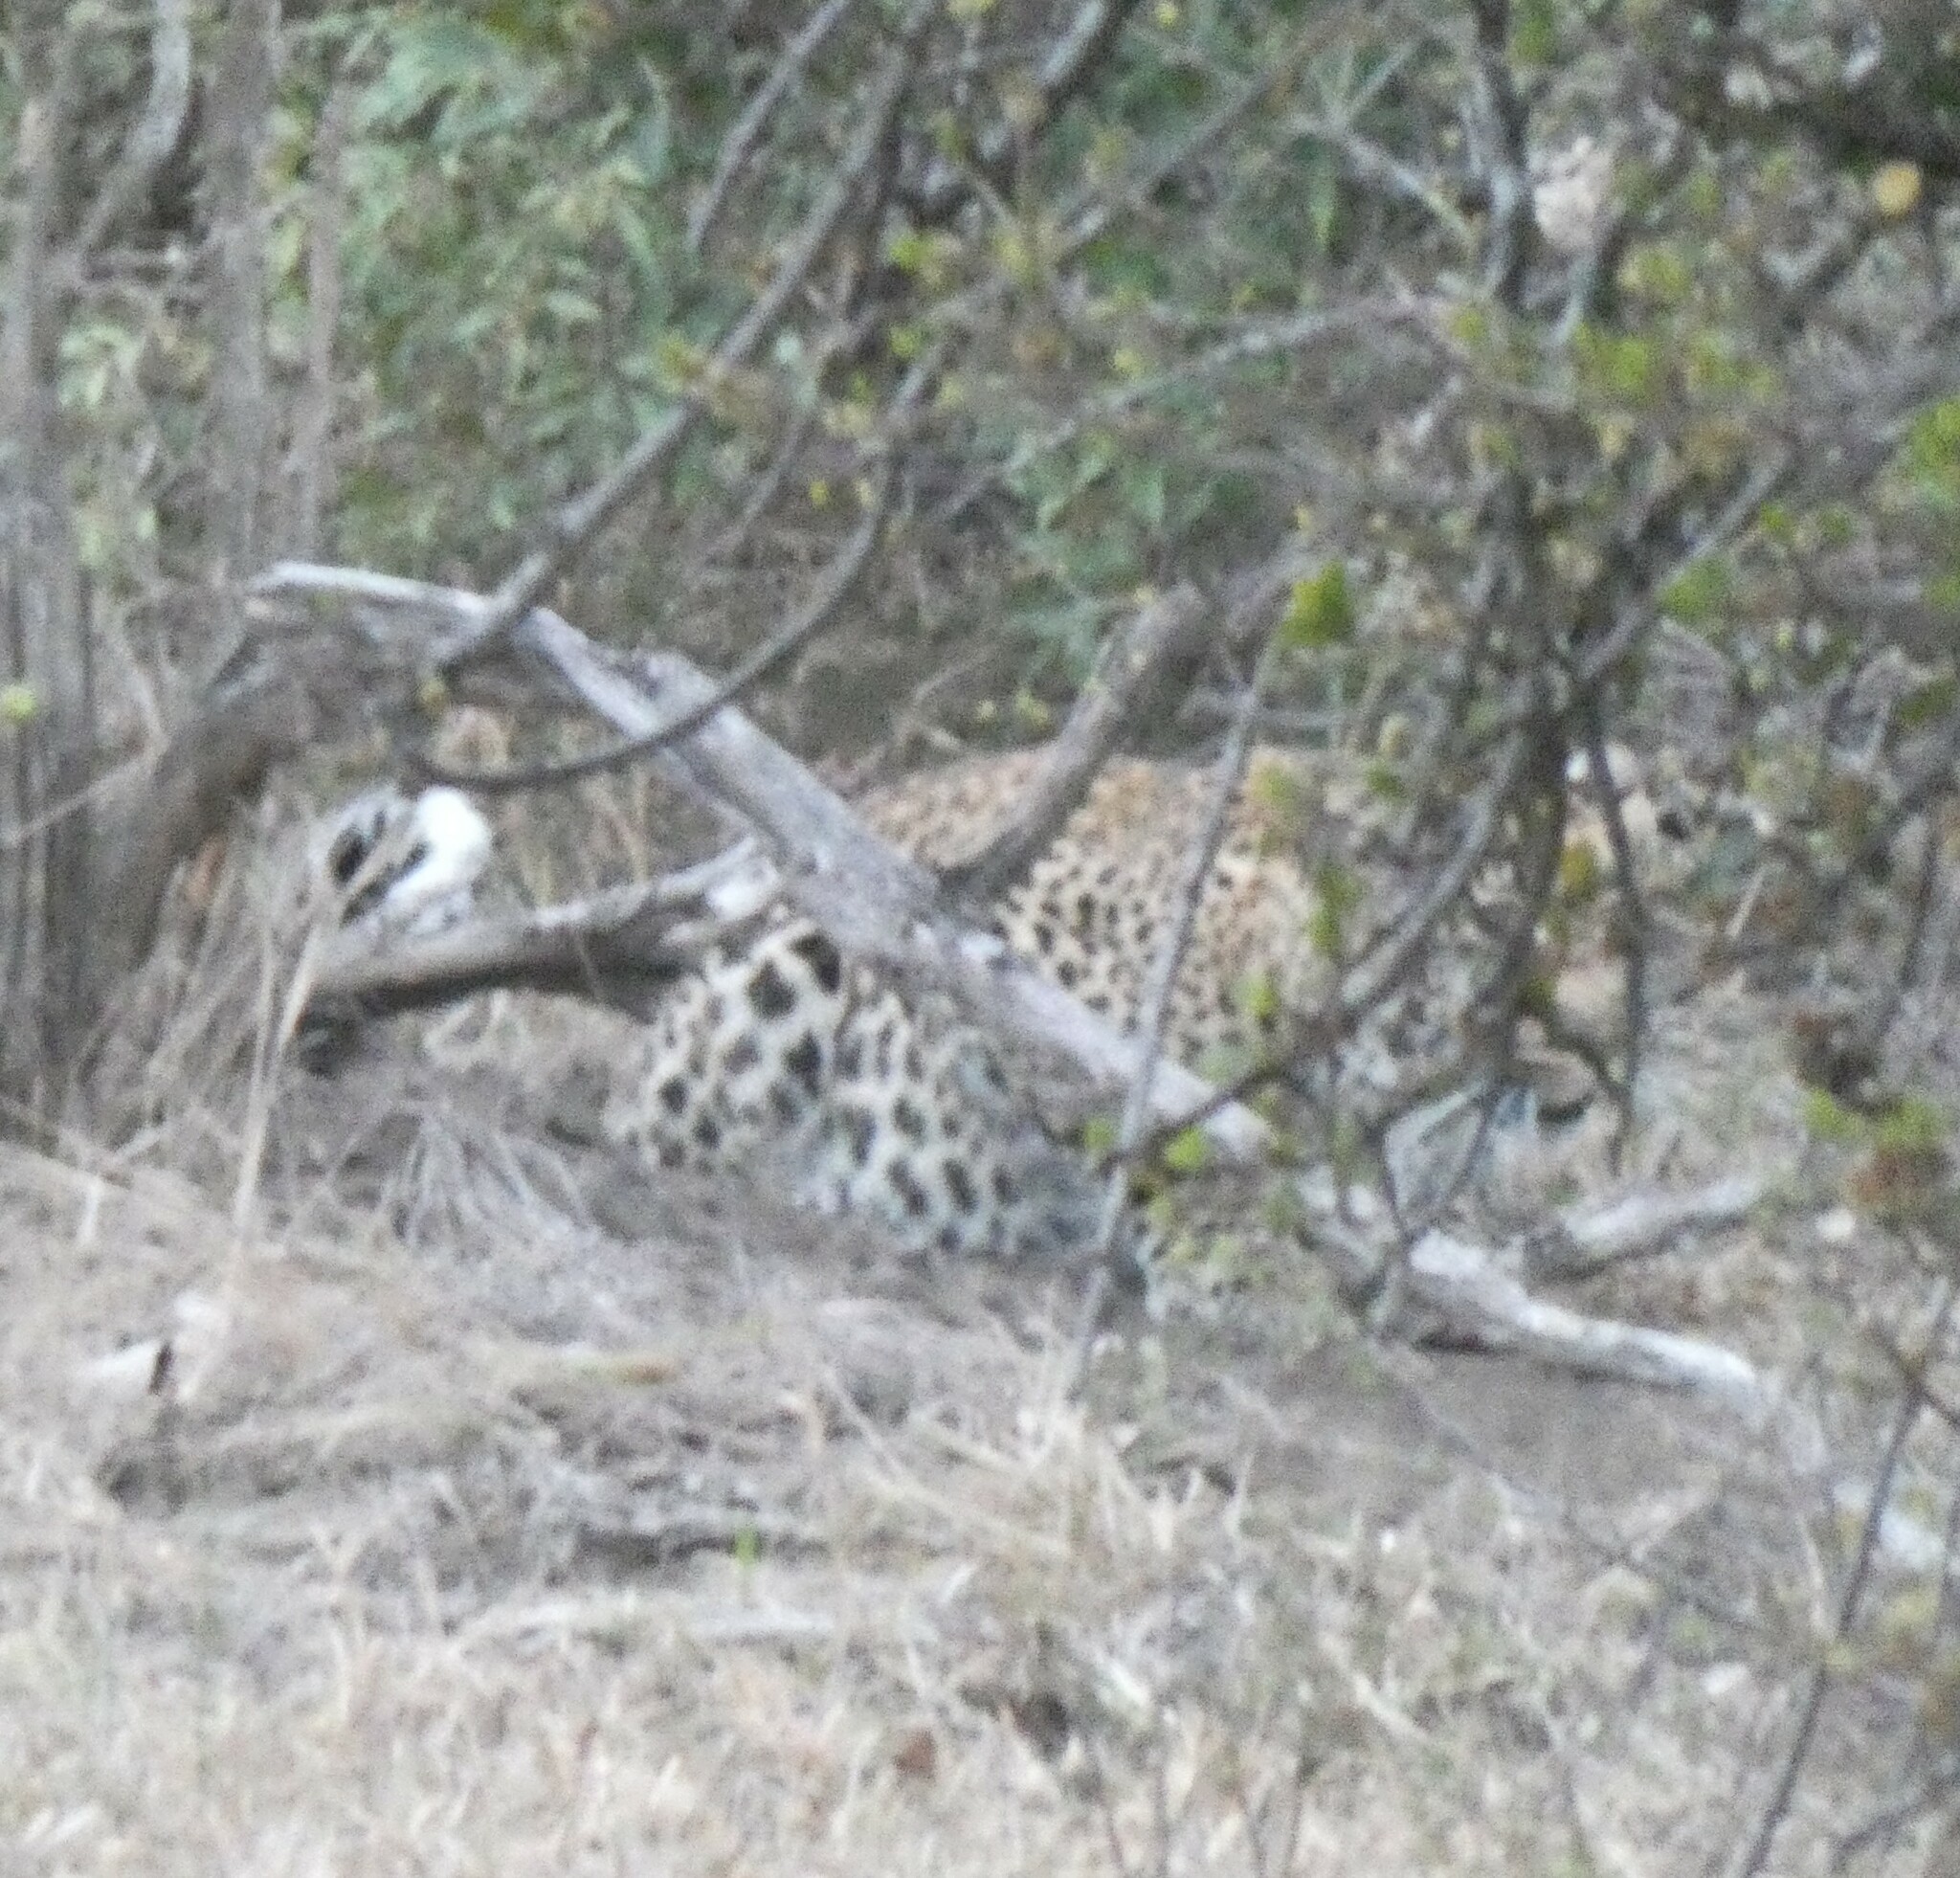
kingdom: Animalia
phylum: Chordata
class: Mammalia
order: Carnivora
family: Felidae
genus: Panthera
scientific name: Panthera pardus
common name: Leopard
